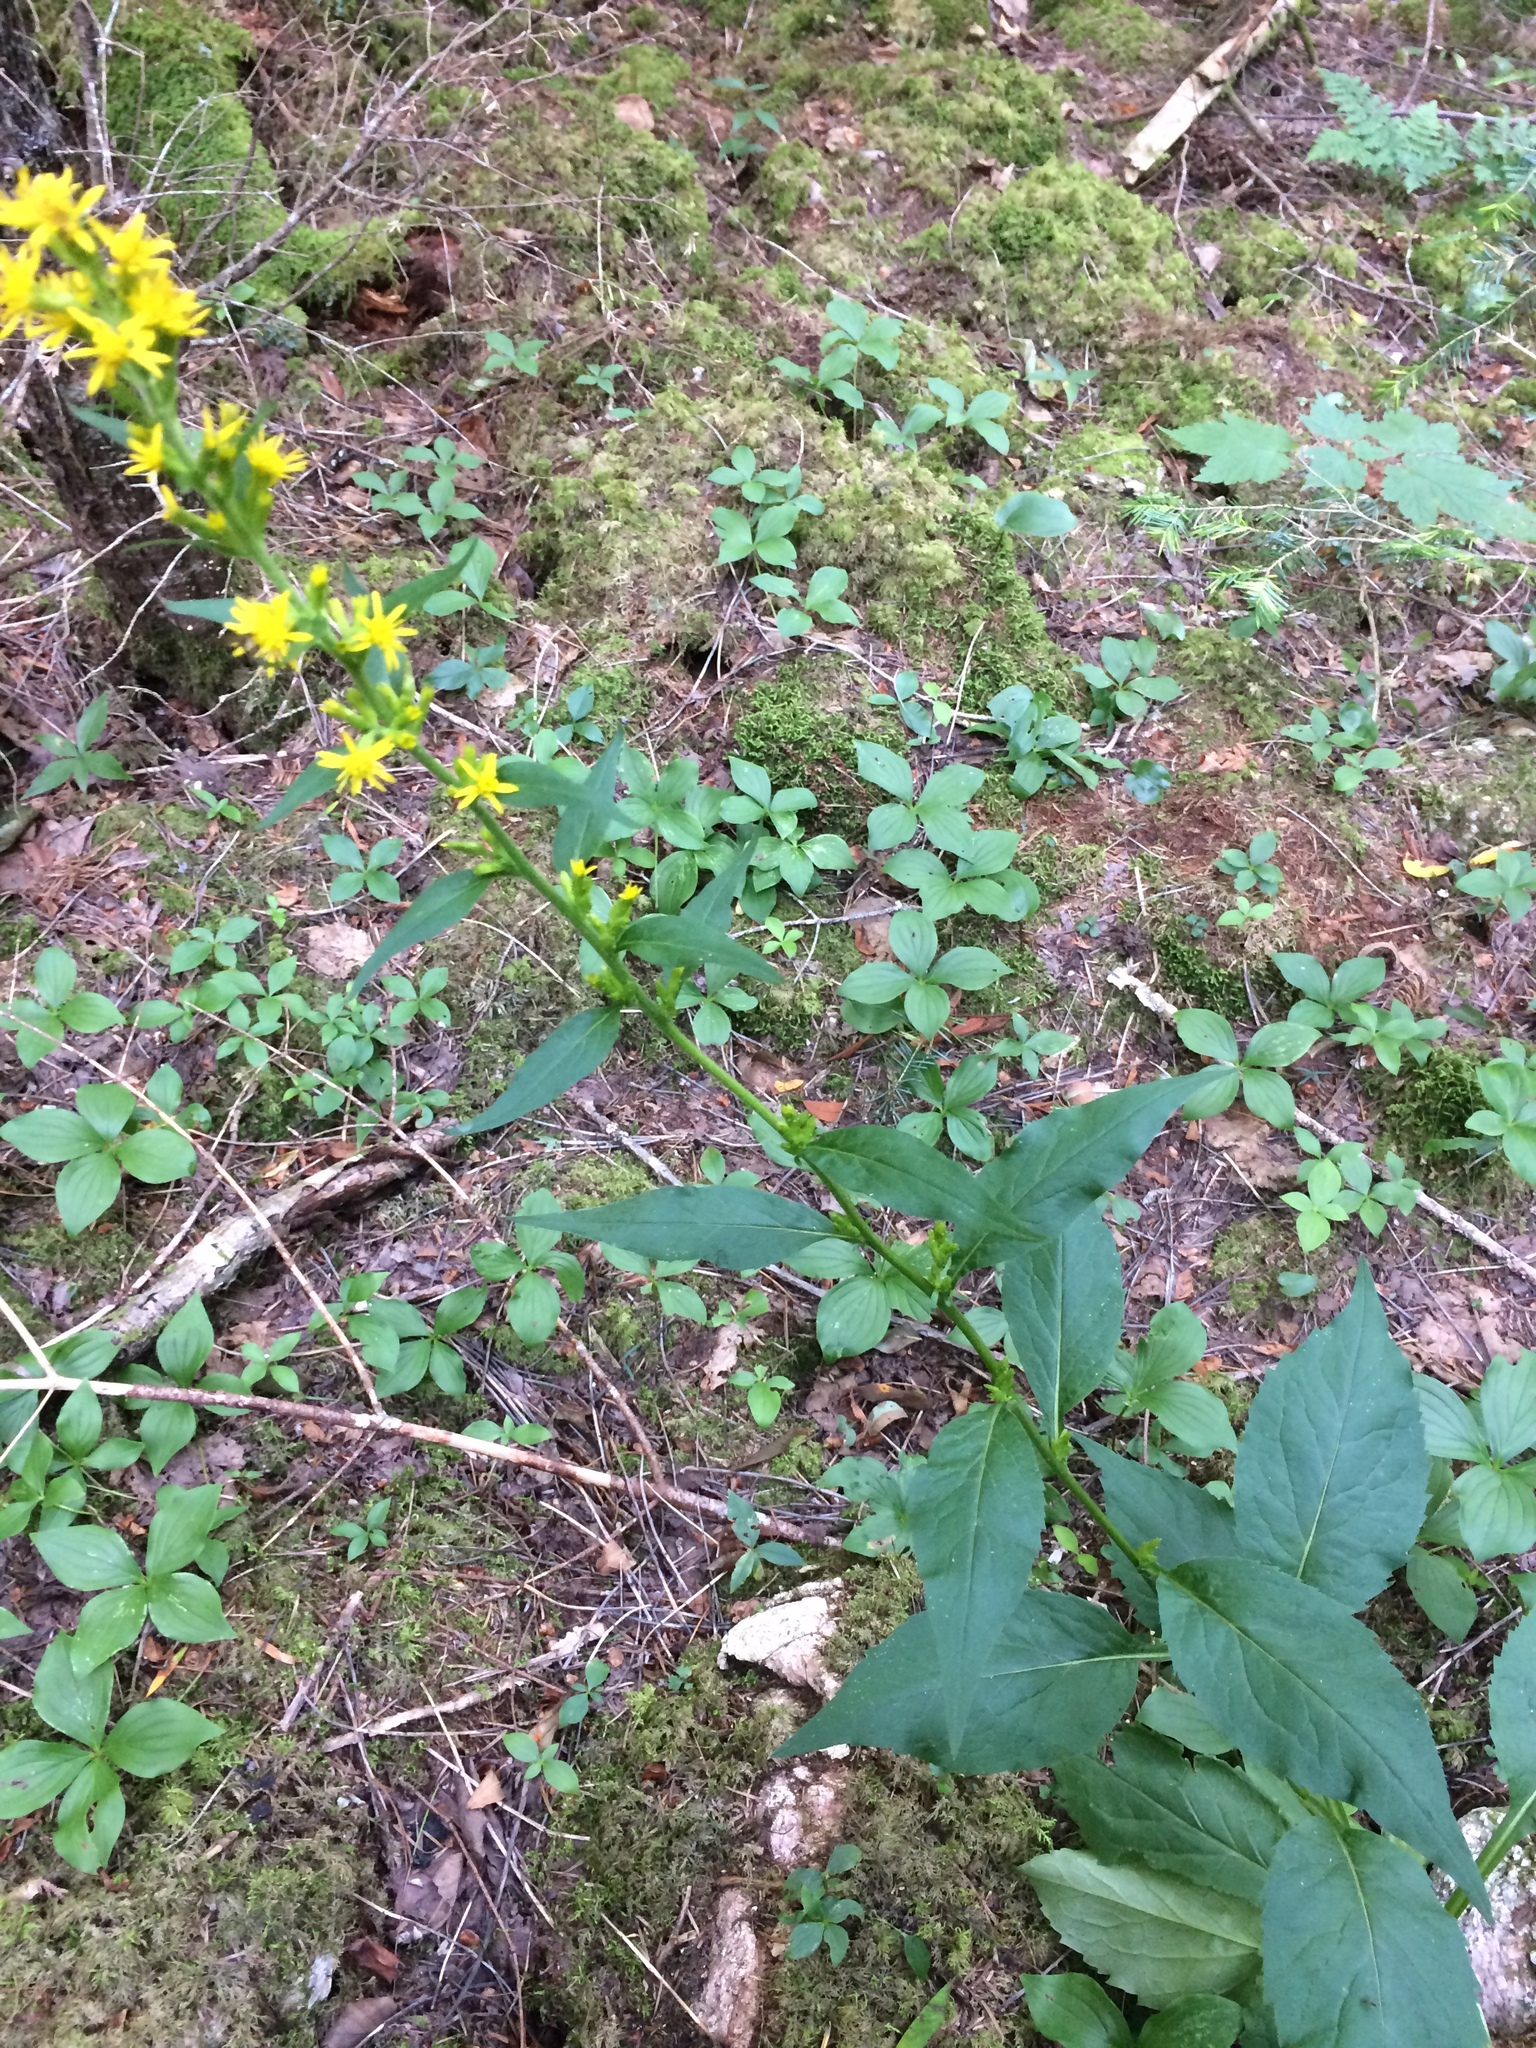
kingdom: Plantae
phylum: Tracheophyta
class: Magnoliopsida
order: Asterales
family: Asteraceae
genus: Solidago
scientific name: Solidago macrophylla
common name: Large-leaved goldenrod
